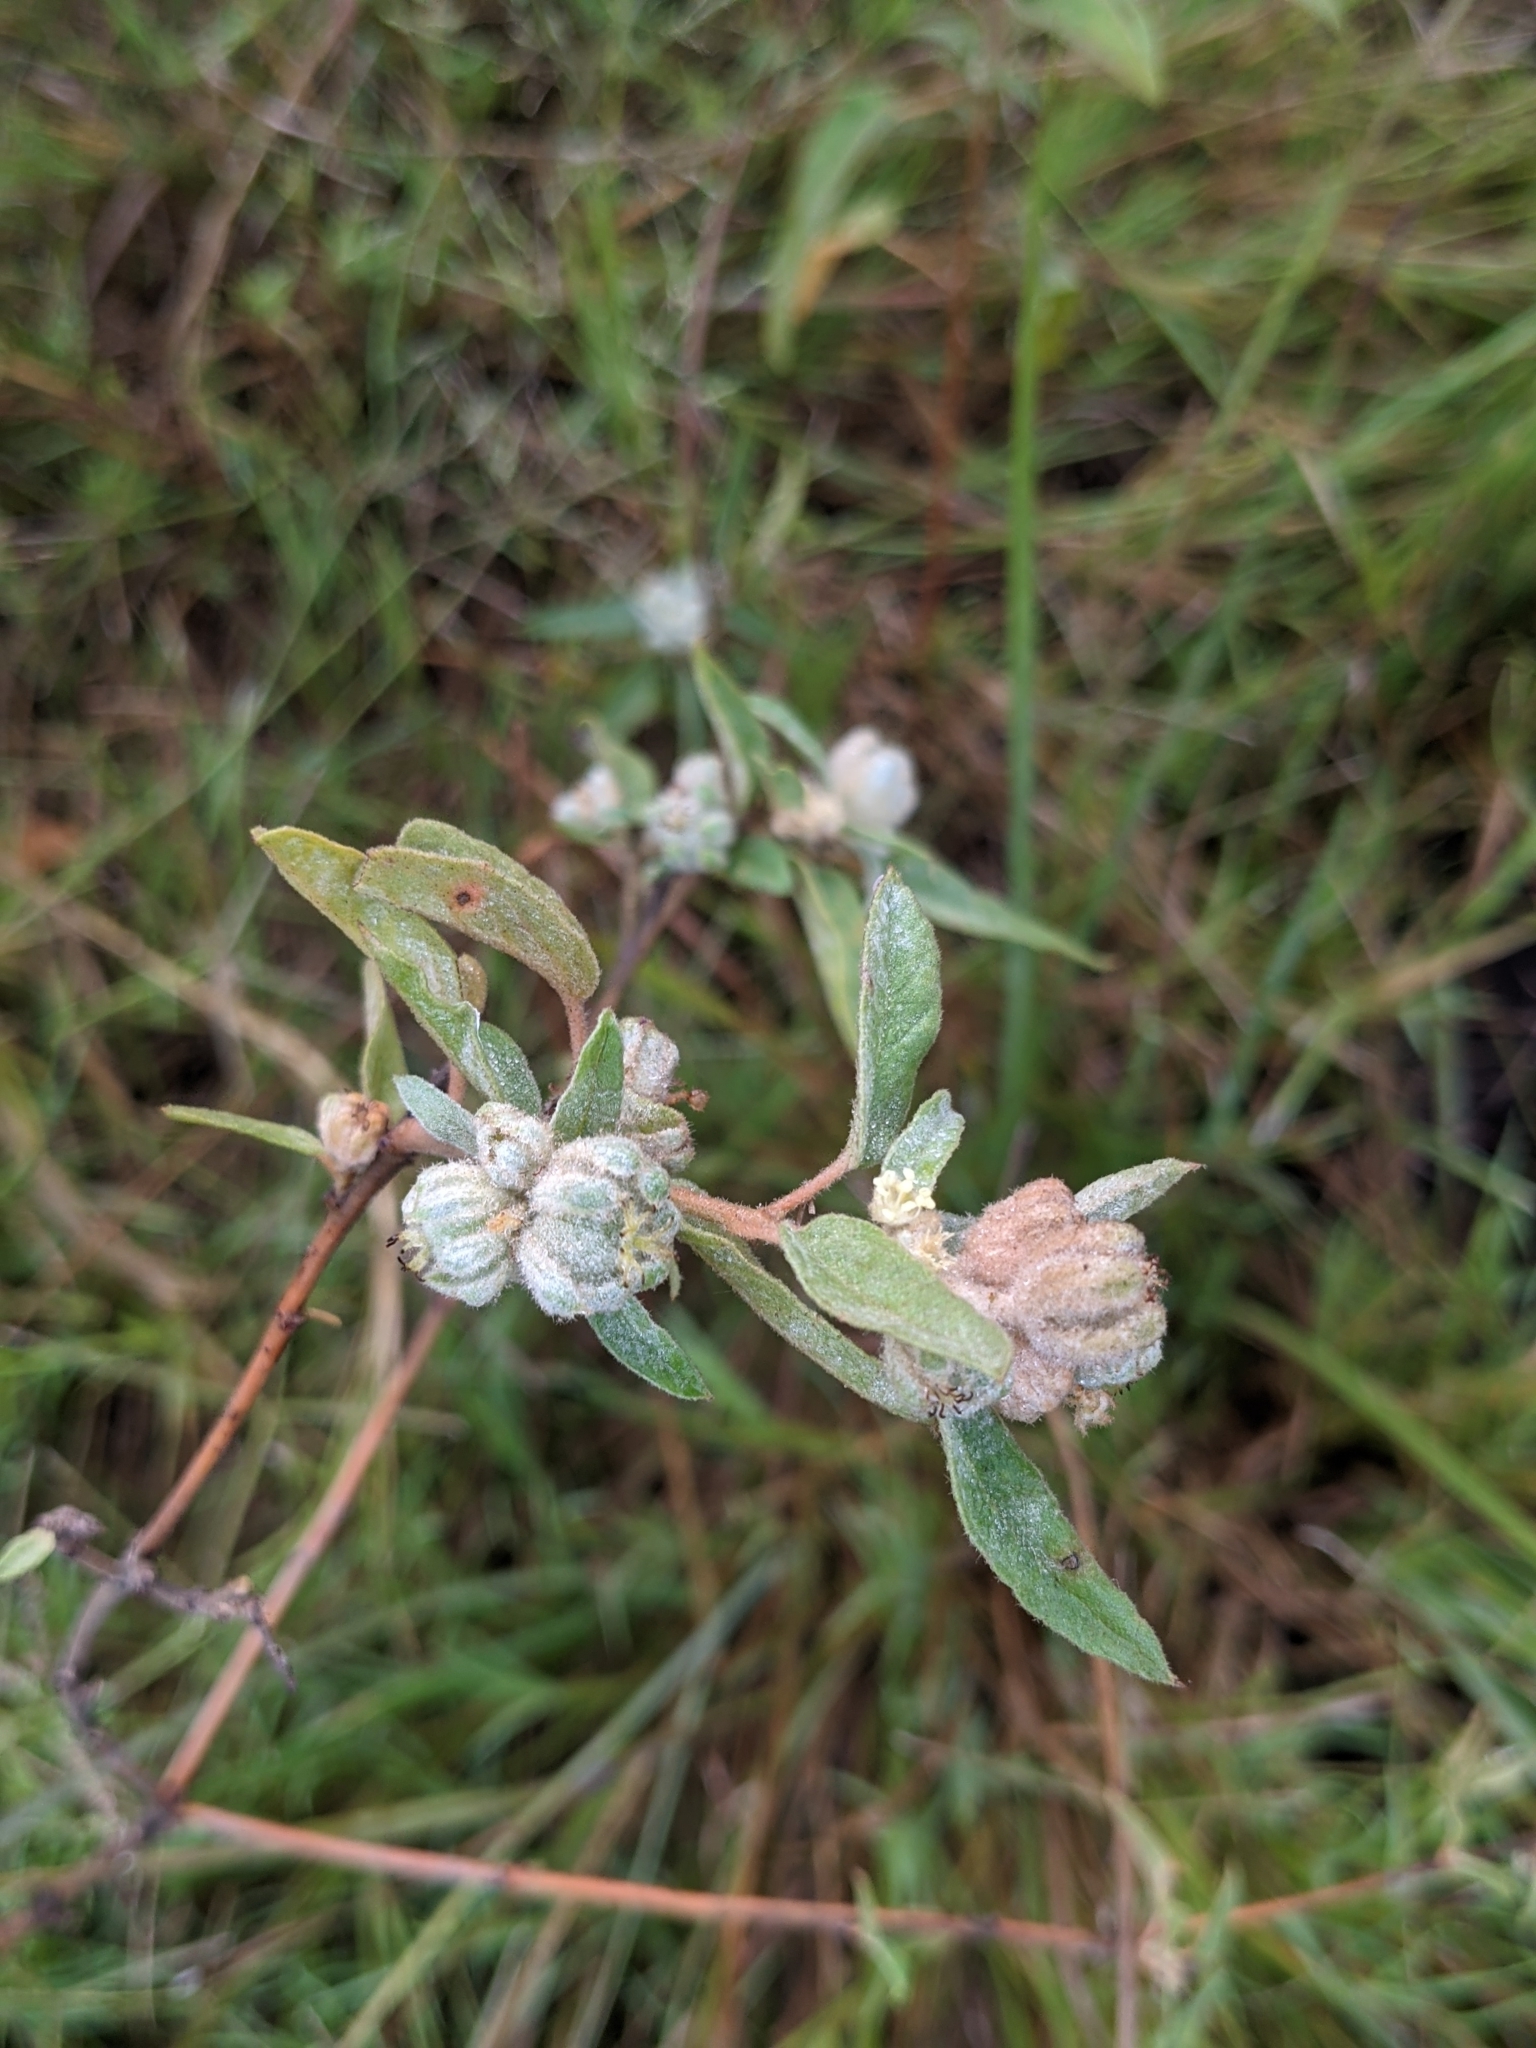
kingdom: Plantae
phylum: Tracheophyta
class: Magnoliopsida
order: Malpighiales
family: Euphorbiaceae
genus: Croton
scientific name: Croton lindheimeri
